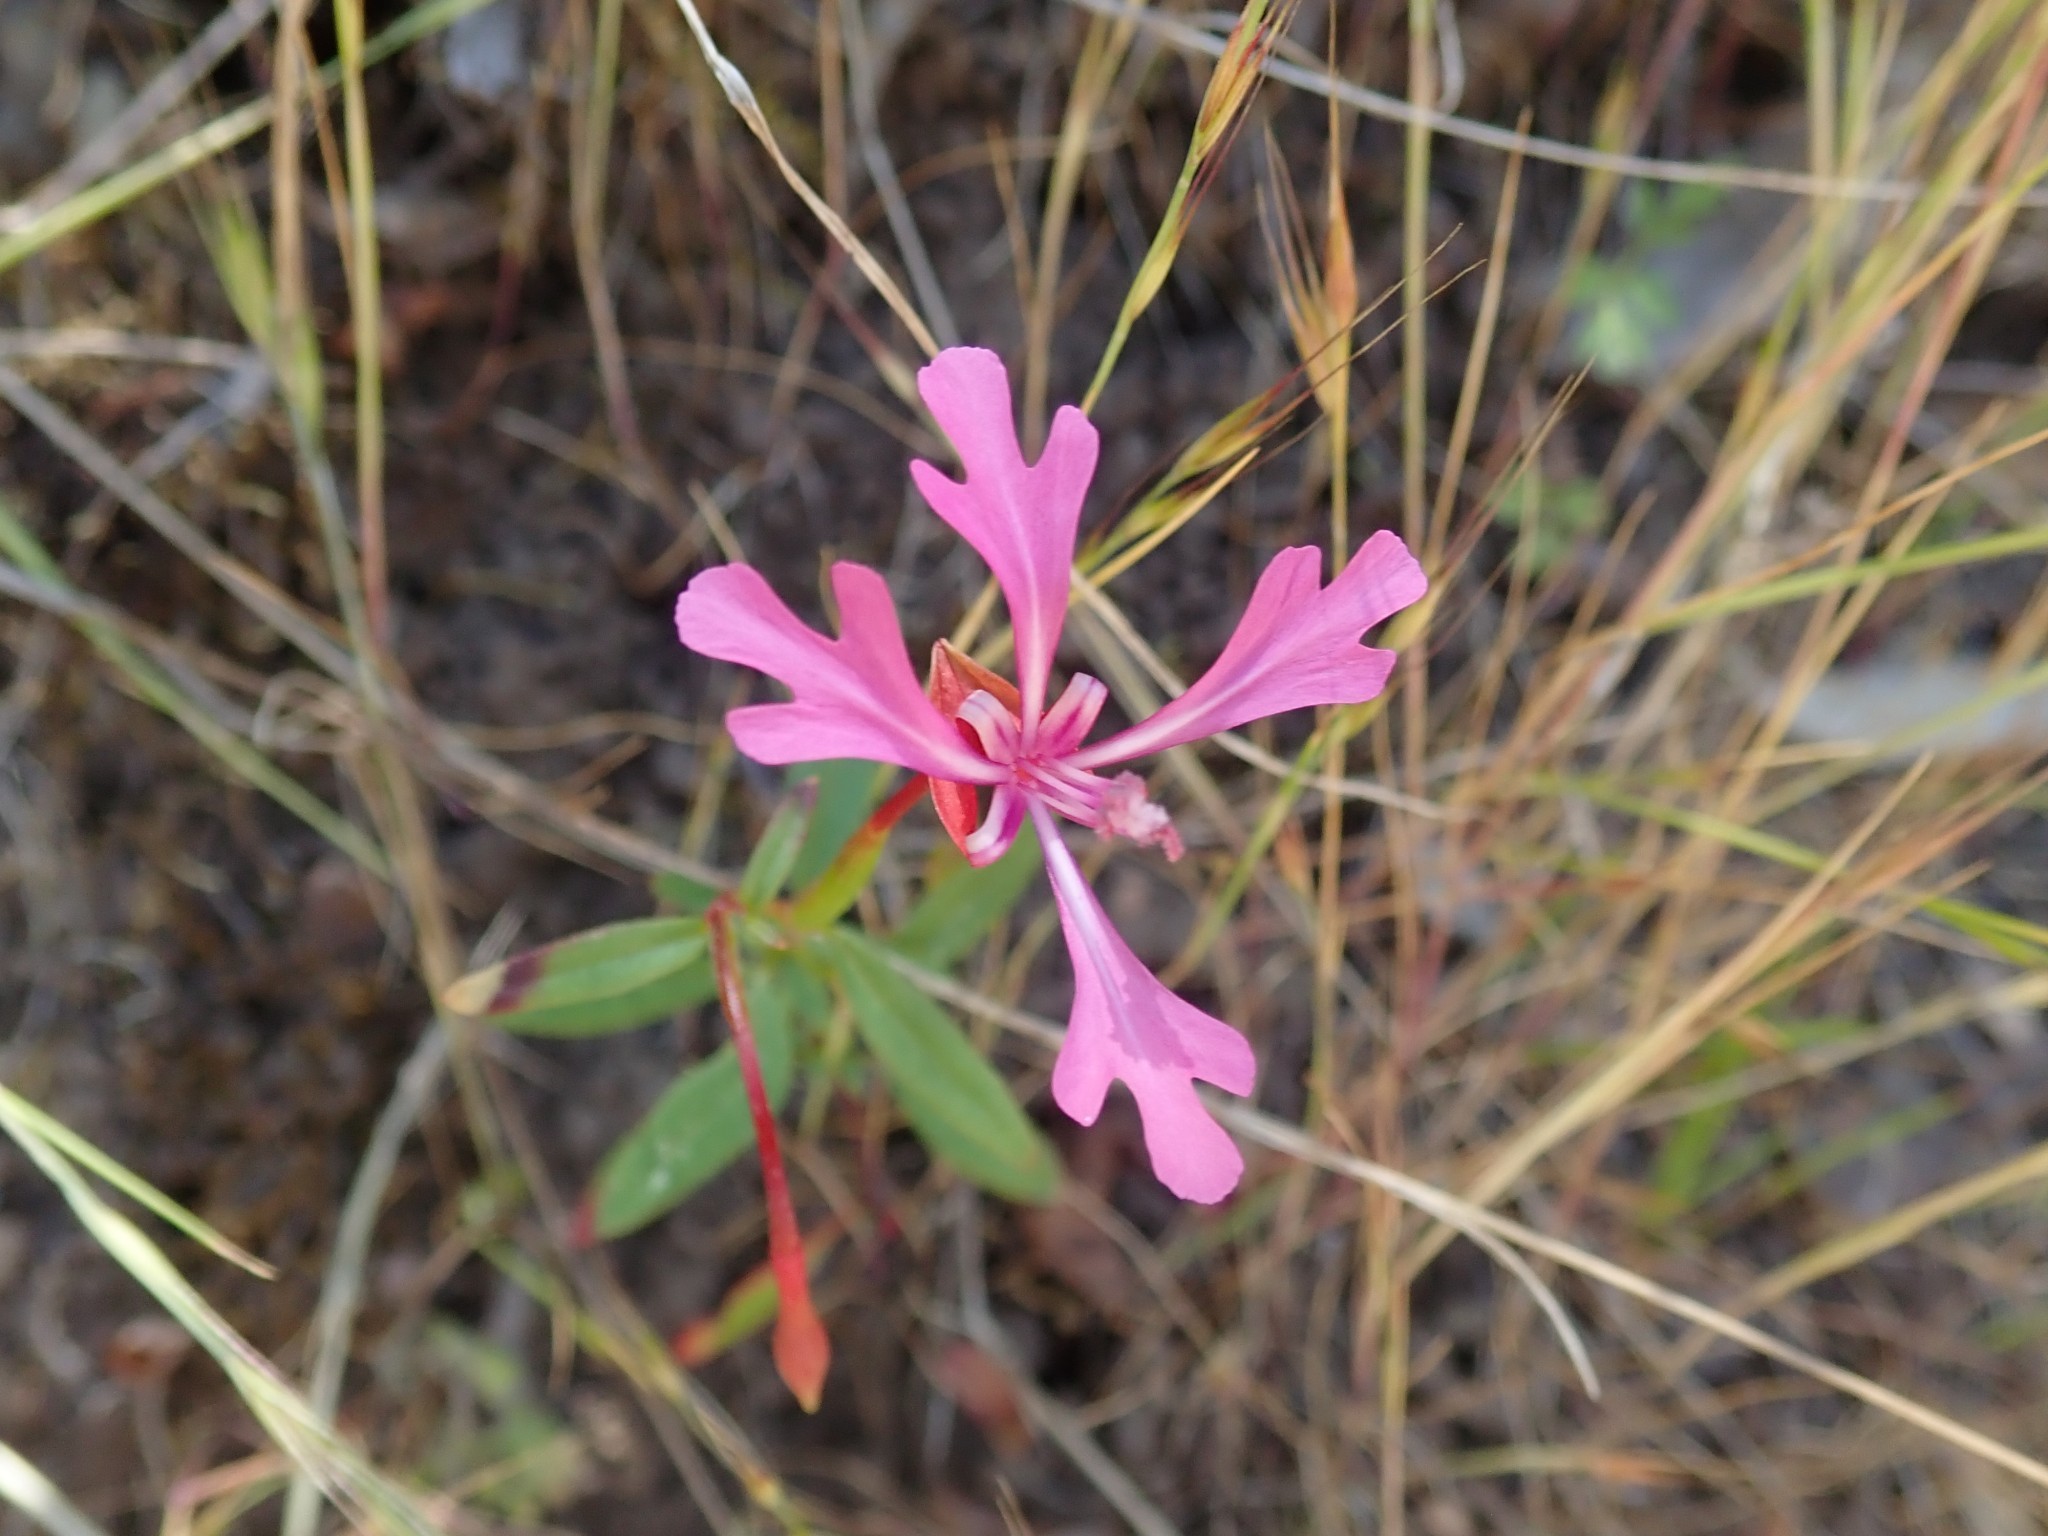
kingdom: Plantae
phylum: Tracheophyta
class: Magnoliopsida
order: Myrtales
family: Onagraceae
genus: Clarkia
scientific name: Clarkia concinna
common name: Red-ribbons
